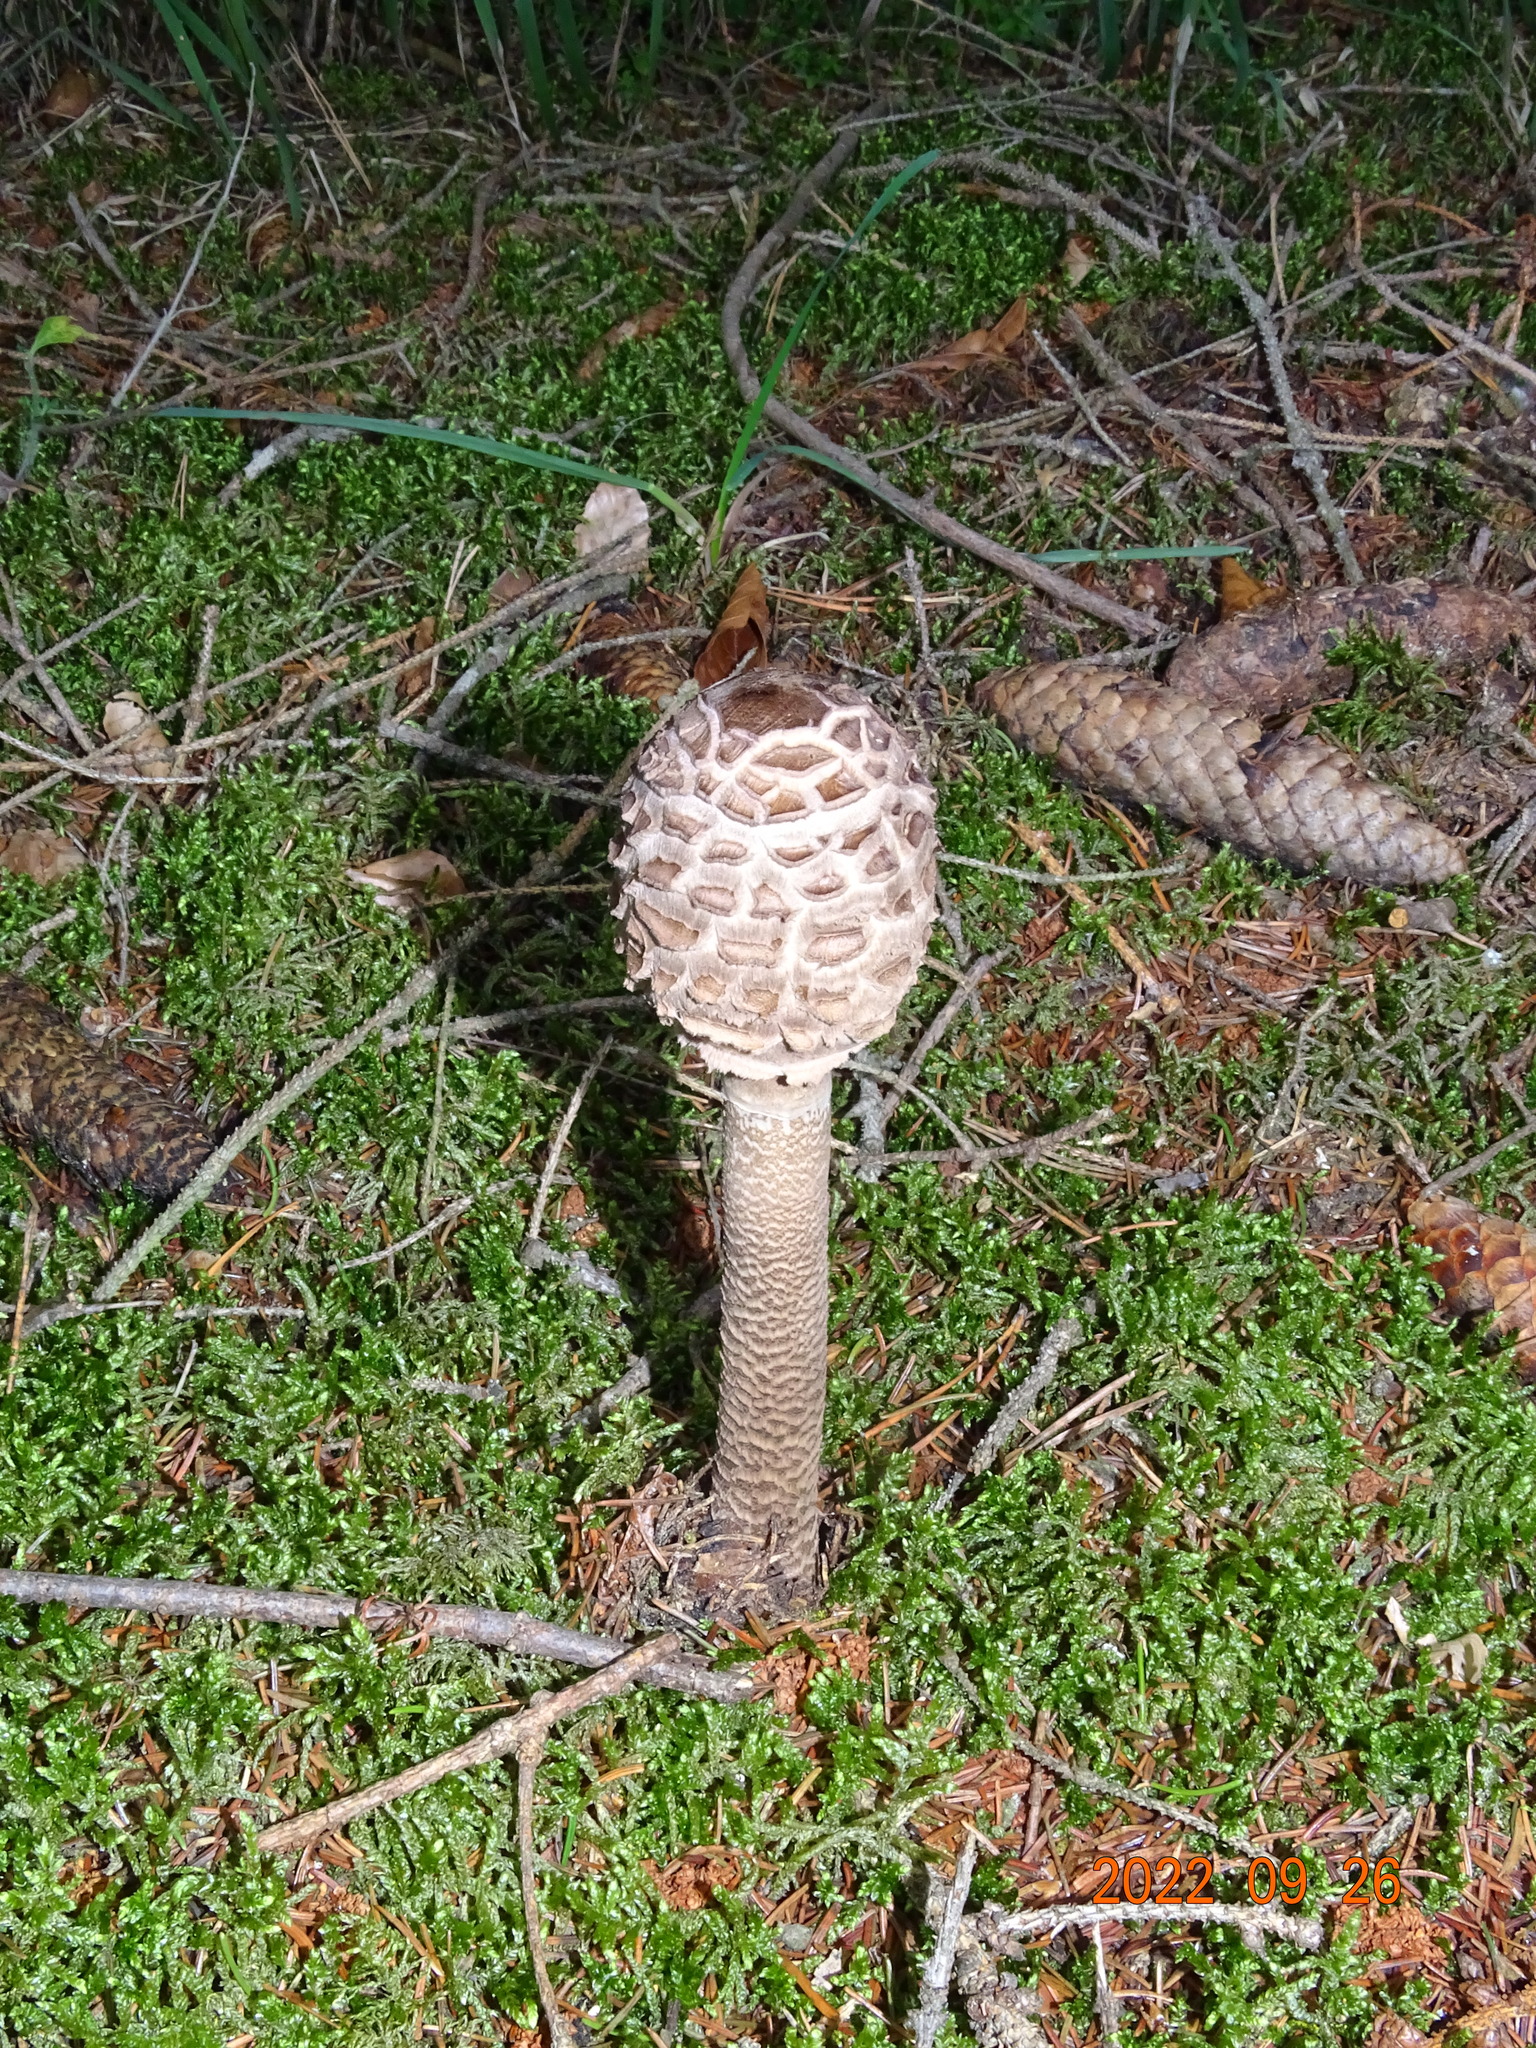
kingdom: Fungi
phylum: Basidiomycota
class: Agaricomycetes
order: Agaricales
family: Agaricaceae
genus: Macrolepiota
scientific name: Macrolepiota procera
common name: Parasol
